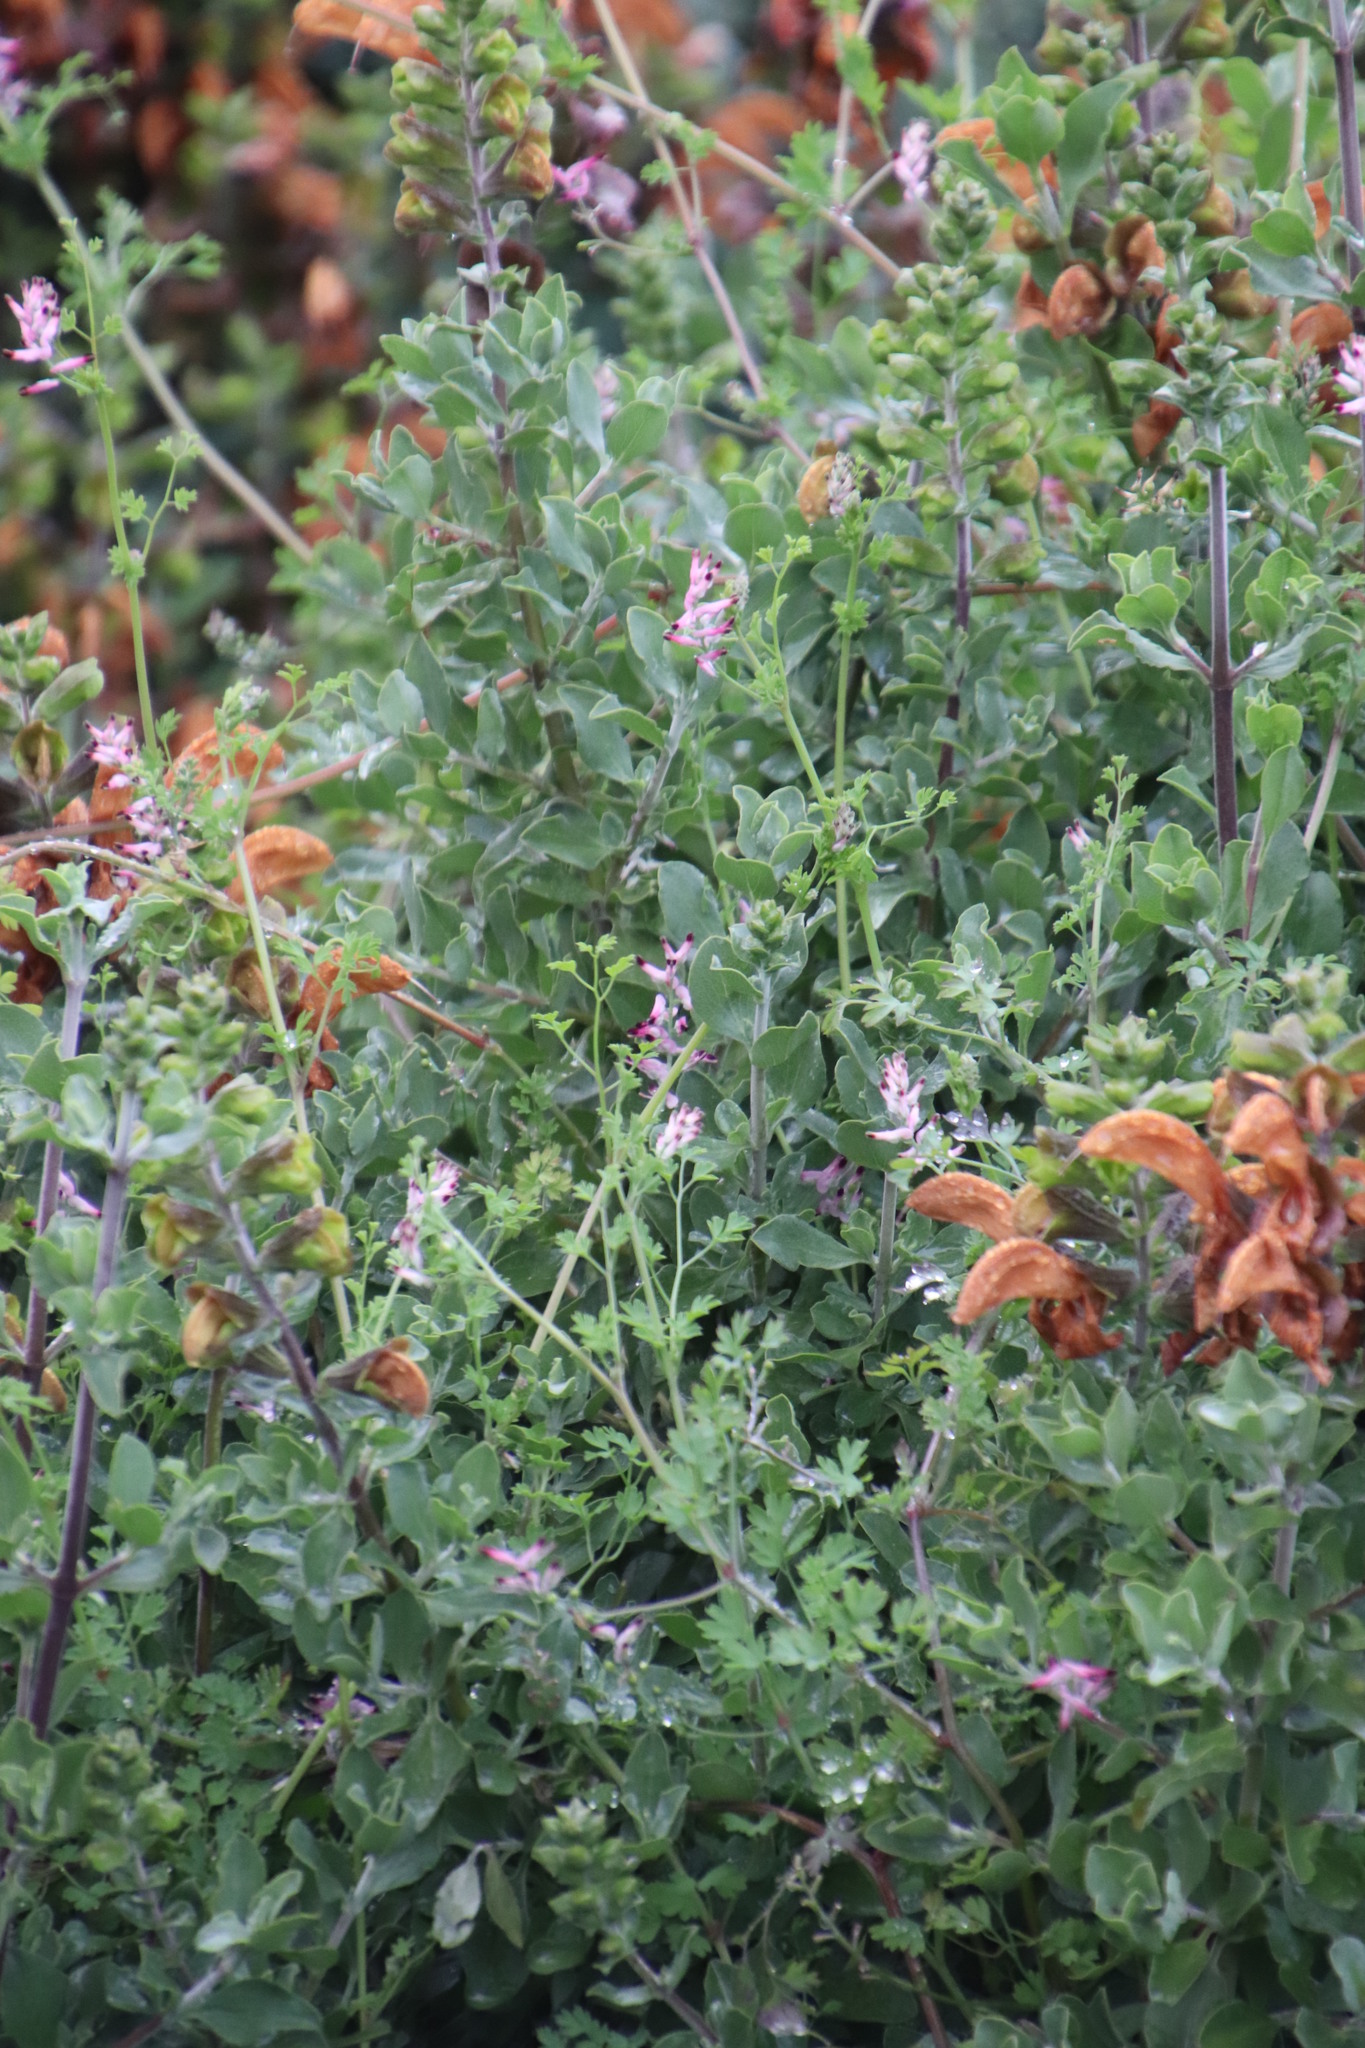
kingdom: Plantae
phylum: Tracheophyta
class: Magnoliopsida
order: Lamiales
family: Lamiaceae
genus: Salvia
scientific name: Salvia aurea
